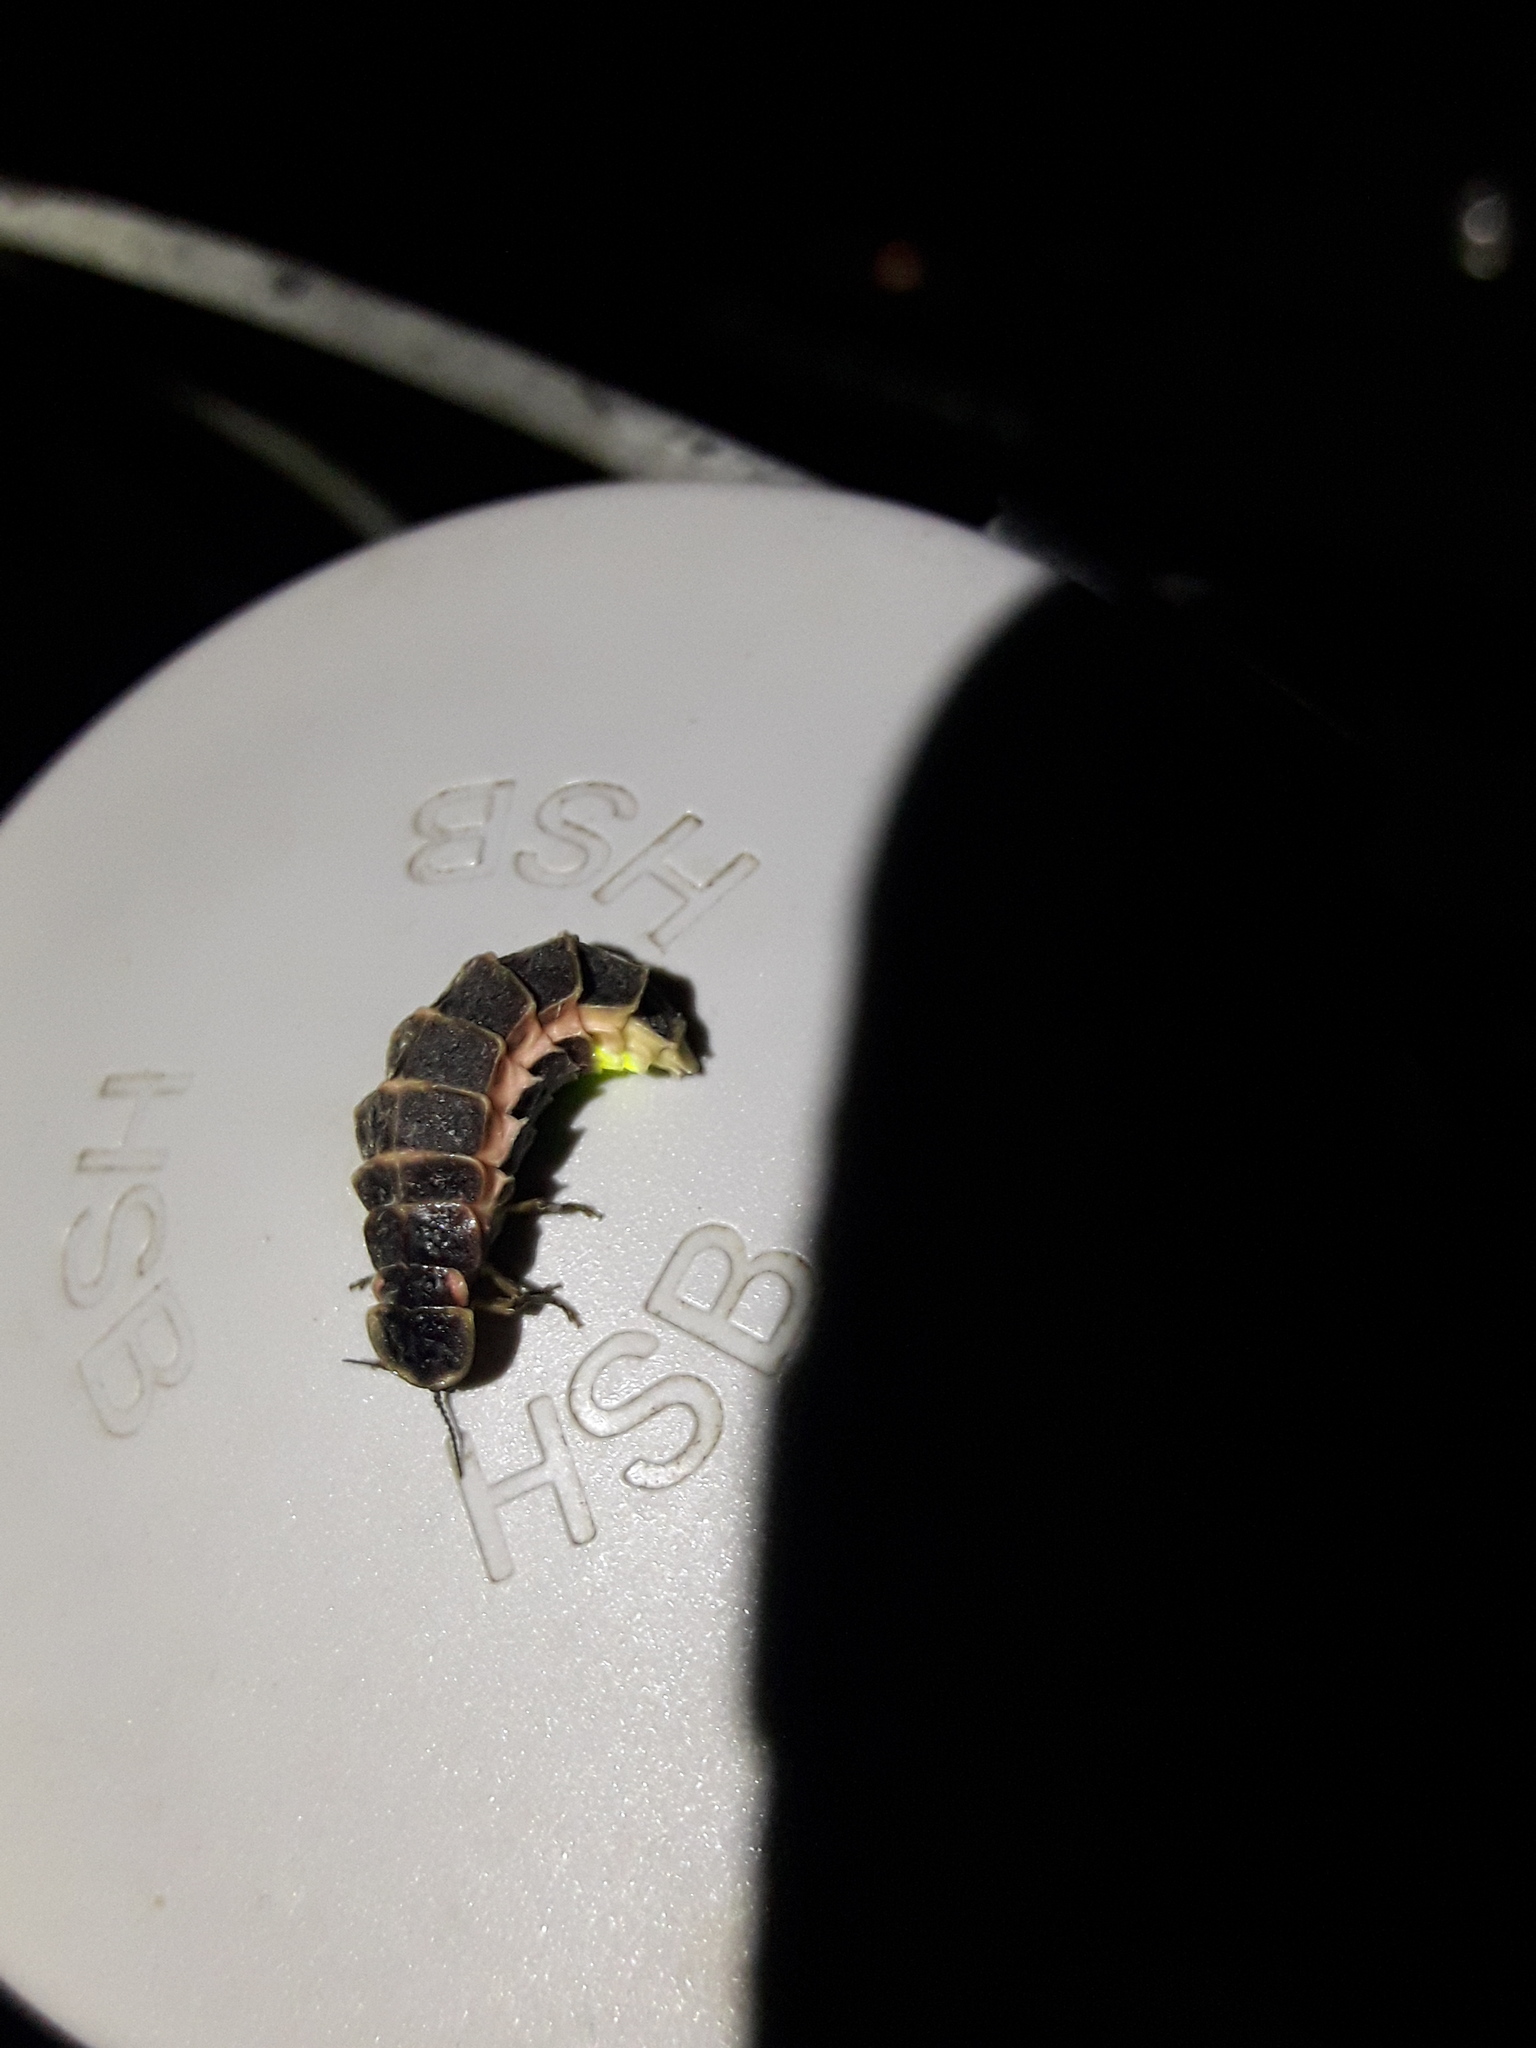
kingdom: Animalia
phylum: Arthropoda
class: Insecta
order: Coleoptera
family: Lampyridae
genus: Lampyris
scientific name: Lampyris noctiluca
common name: Glow-worm
